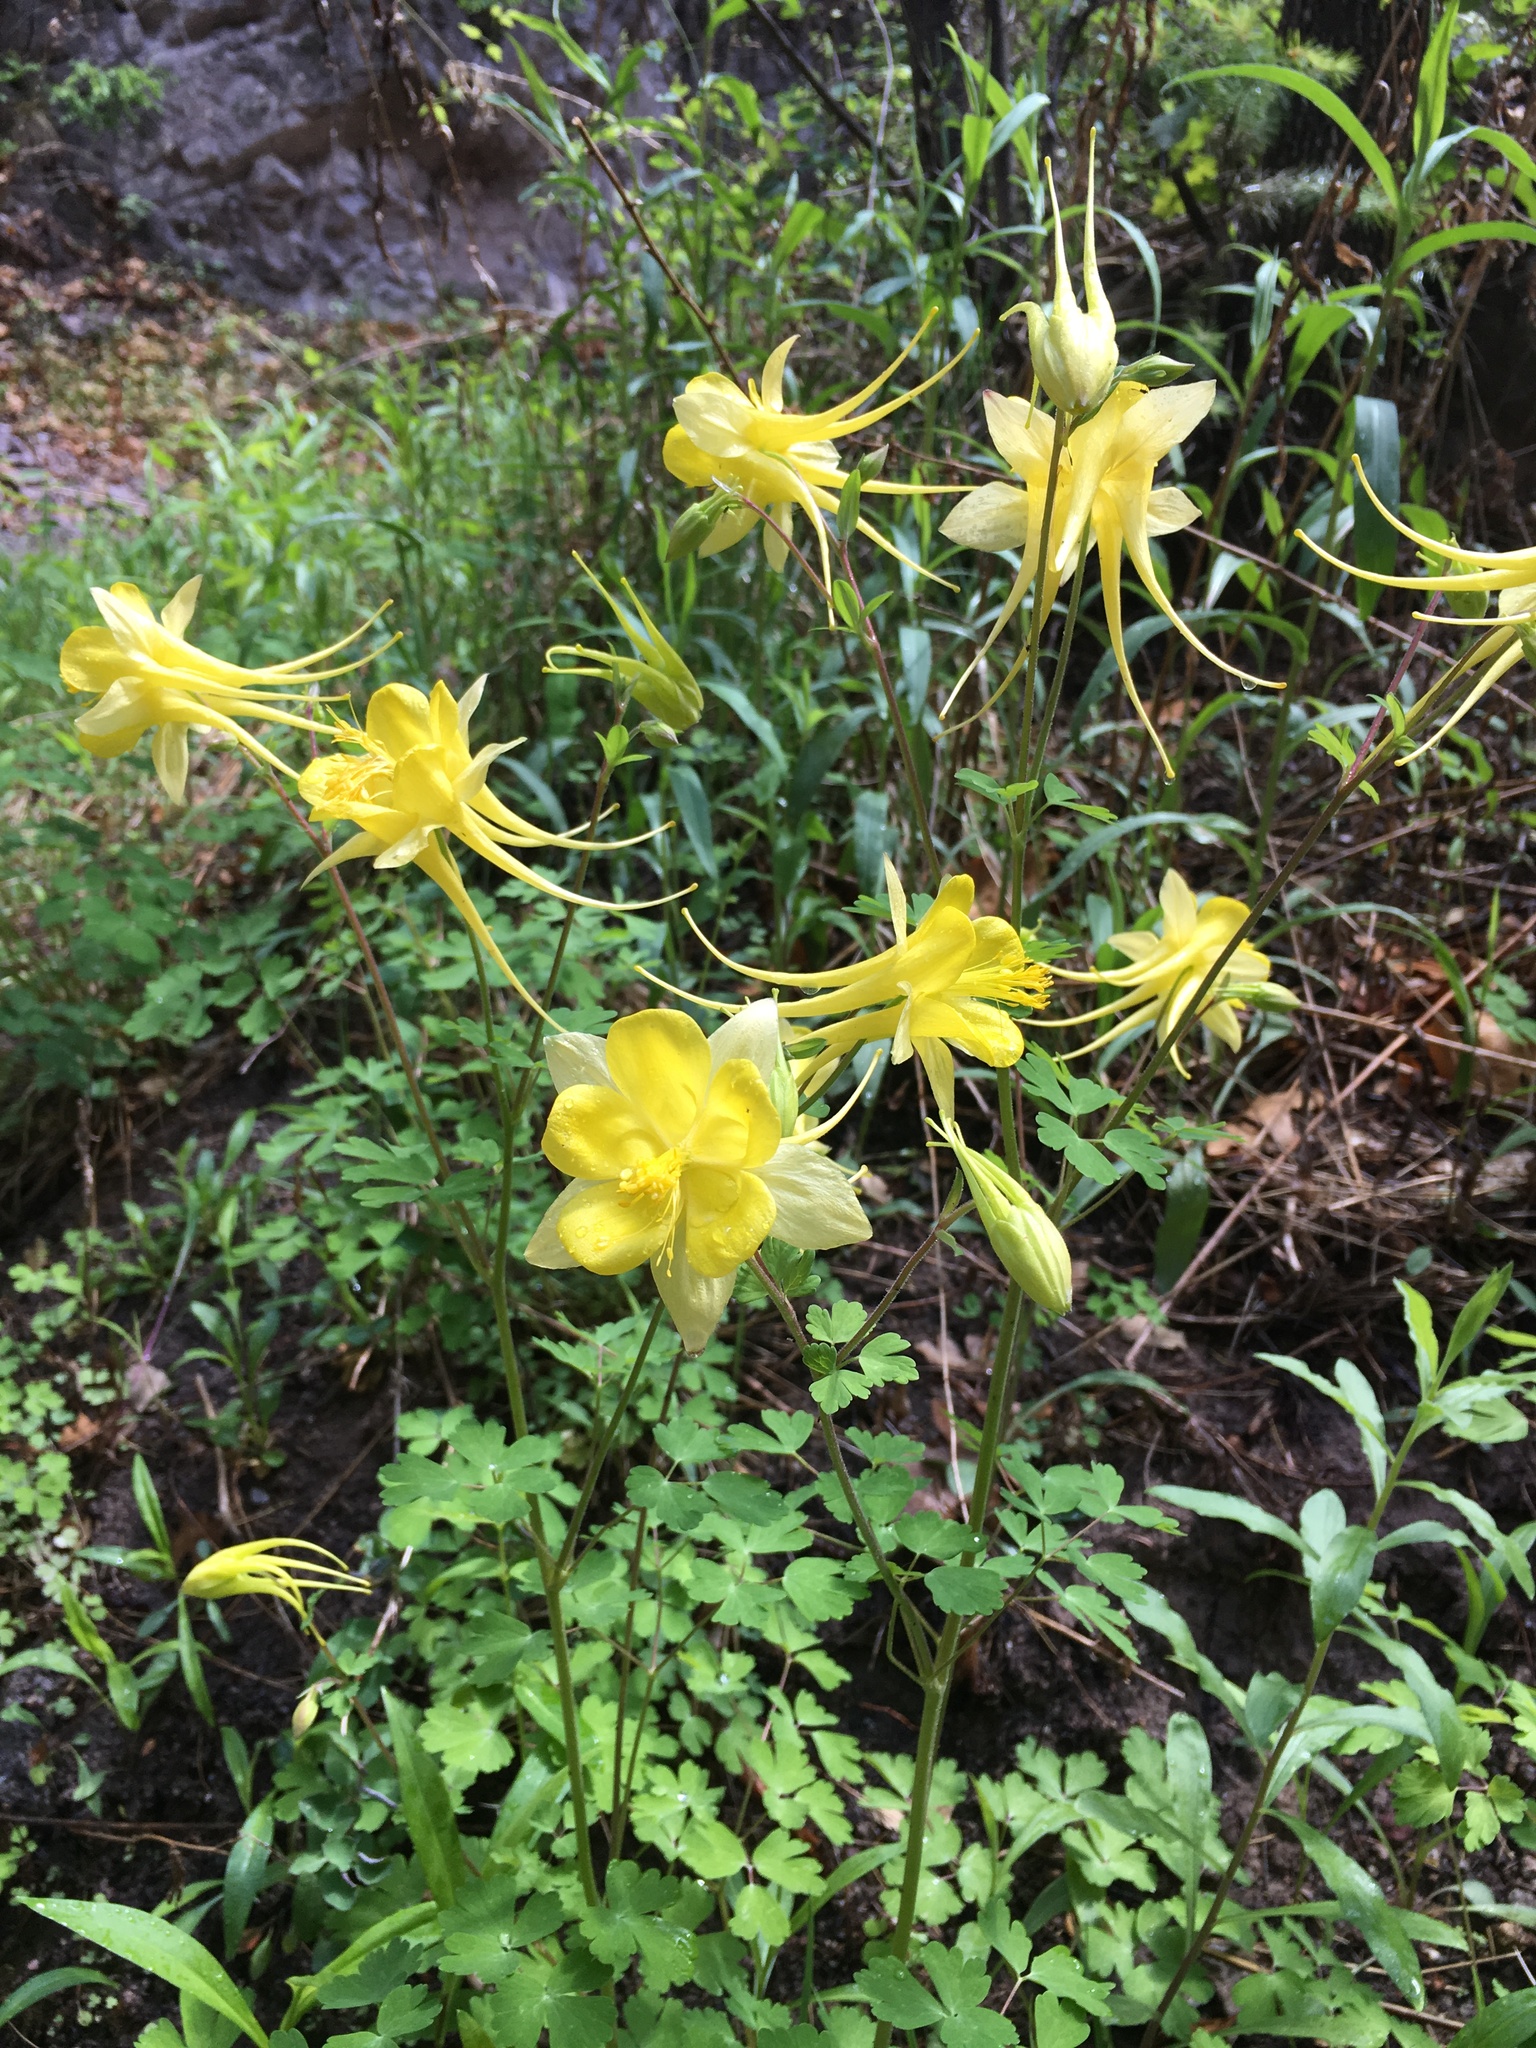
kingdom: Plantae
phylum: Tracheophyta
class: Magnoliopsida
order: Ranunculales
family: Ranunculaceae
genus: Aquilegia
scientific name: Aquilegia chrysantha
